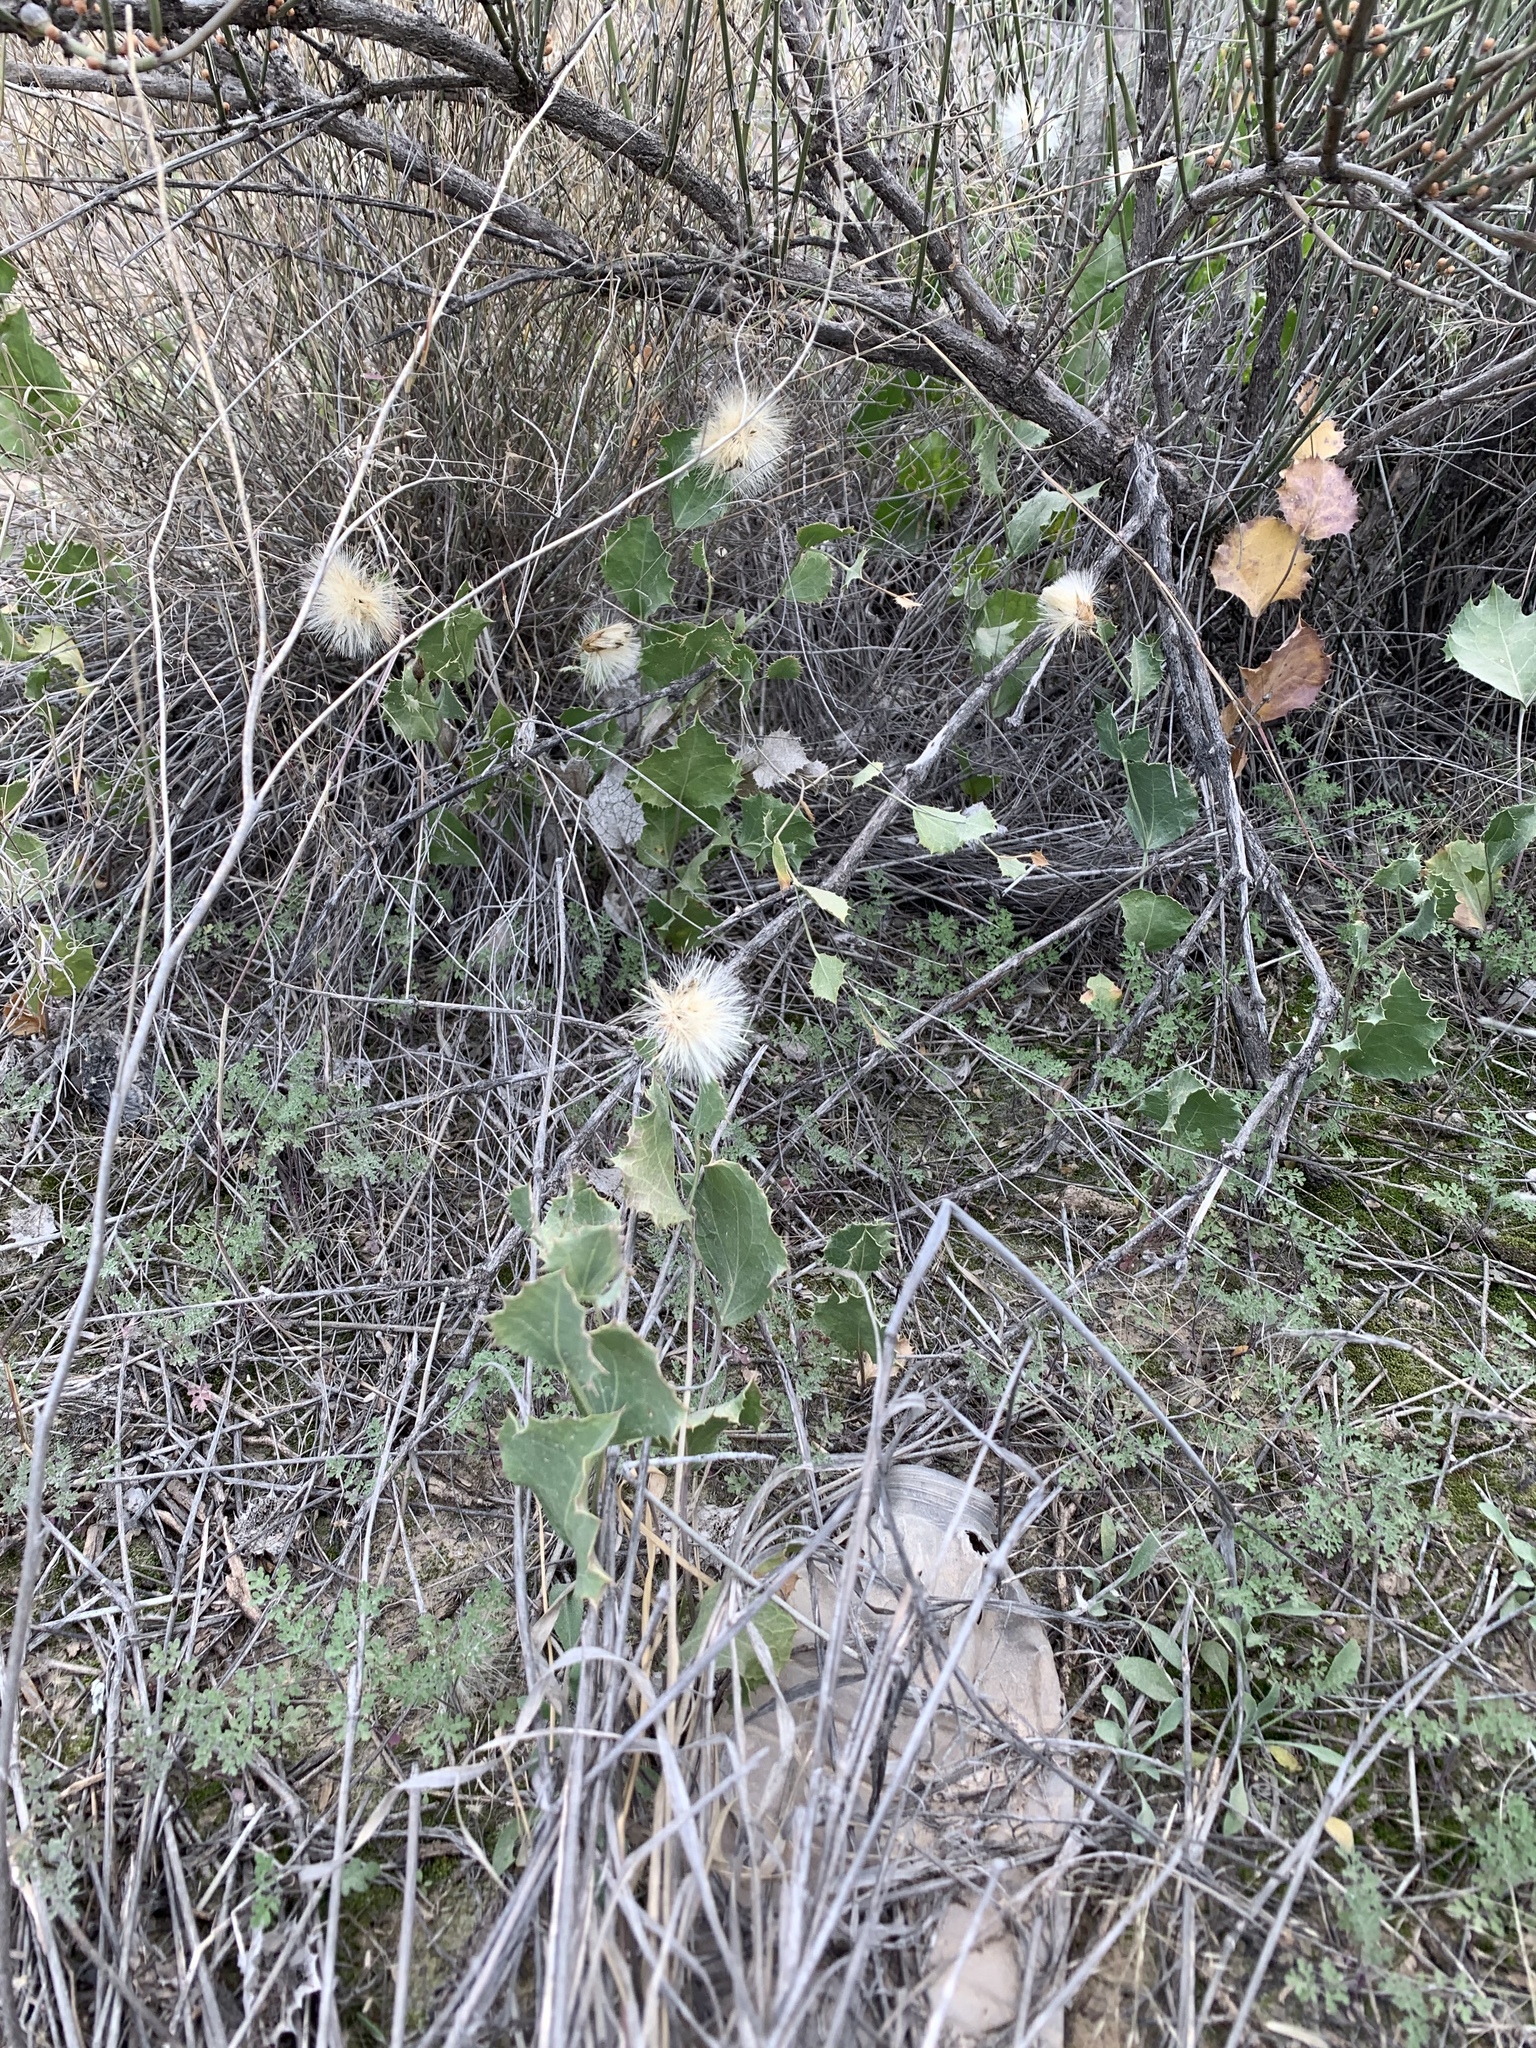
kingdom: Plantae
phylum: Tracheophyta
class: Magnoliopsida
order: Asterales
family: Asteraceae
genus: Acourtia
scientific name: Acourtia nana
